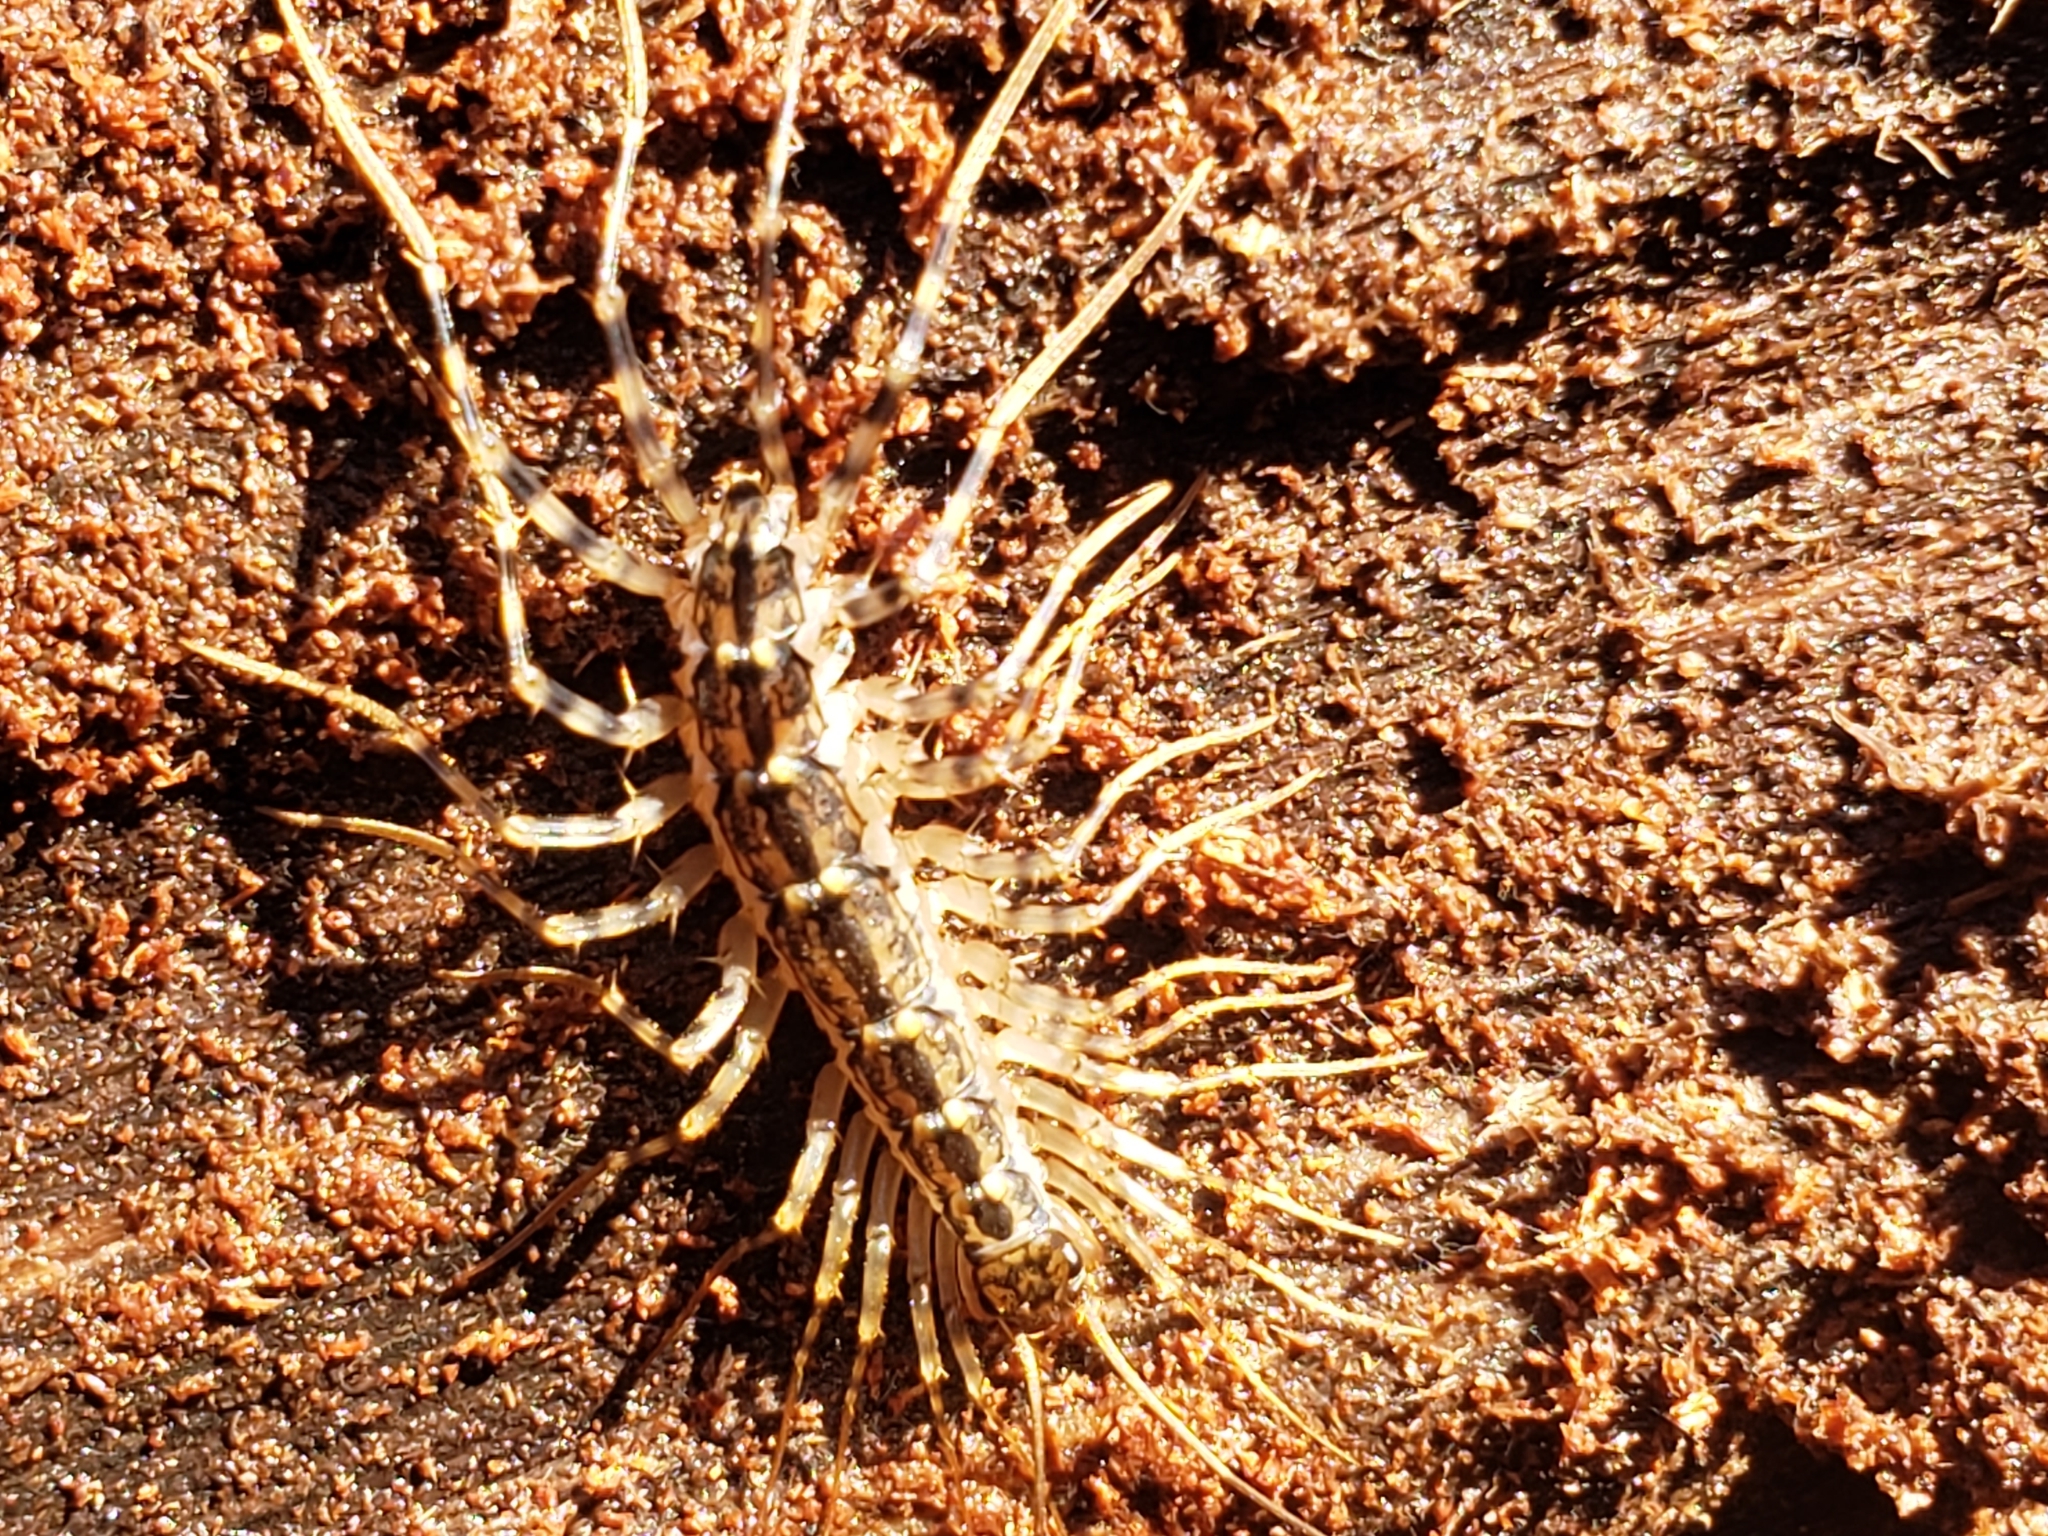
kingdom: Animalia
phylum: Arthropoda
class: Chilopoda
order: Scutigeromorpha
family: Scutigeridae
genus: Thereuonema
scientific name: Thereuonema tuberculata
